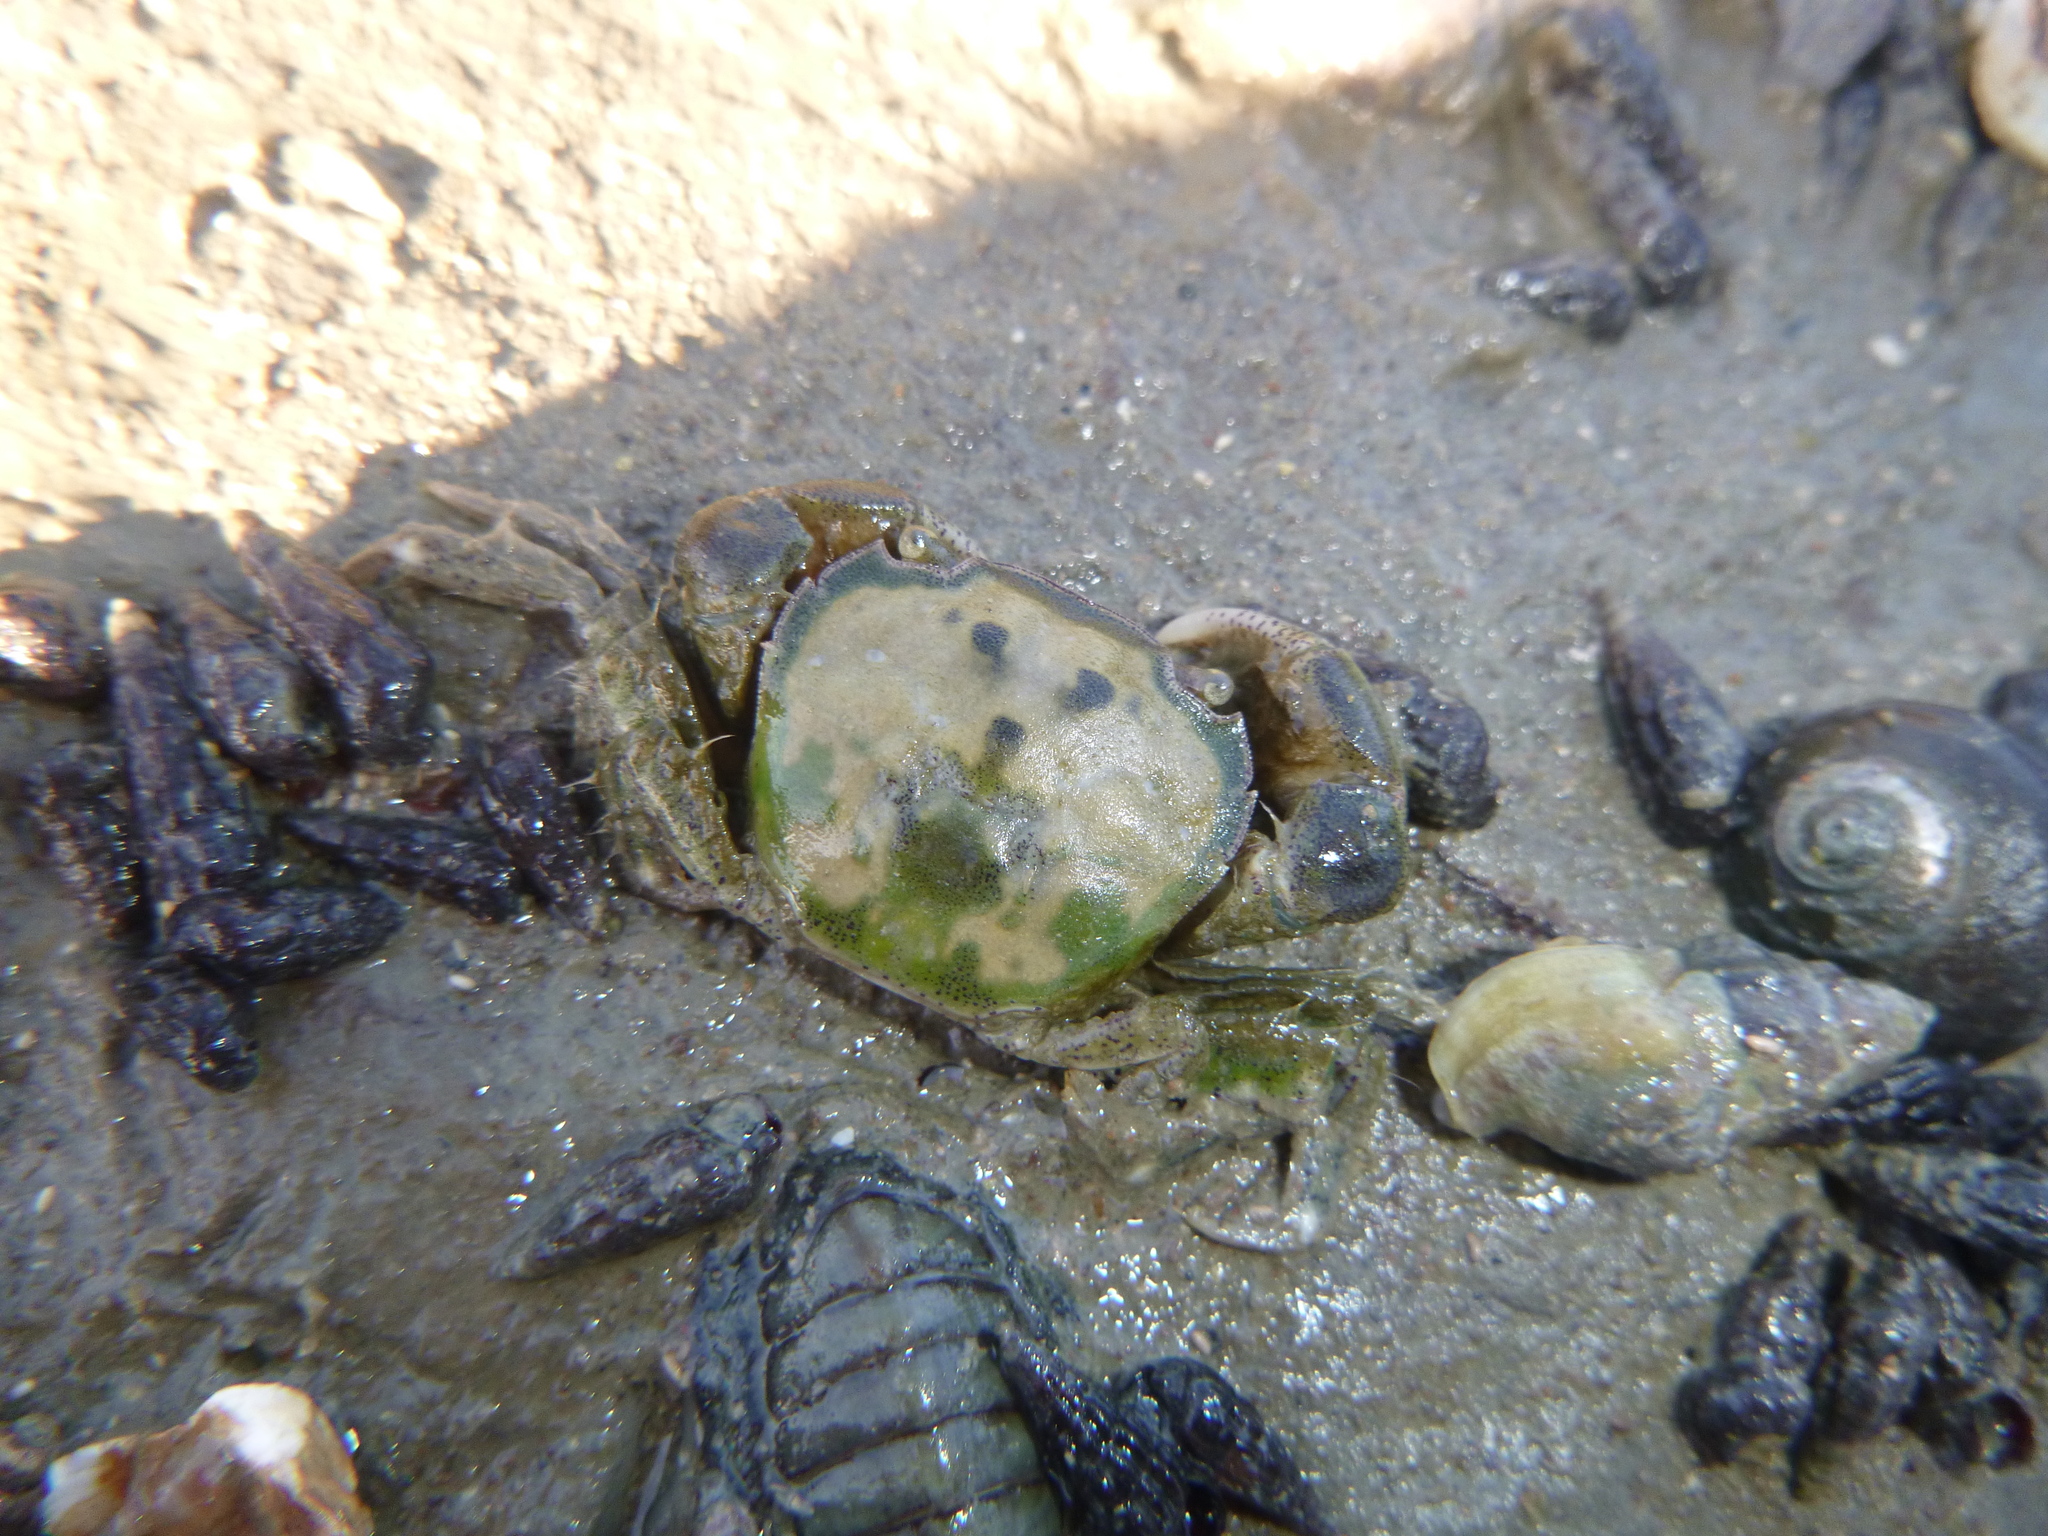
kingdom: Animalia
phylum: Arthropoda
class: Malacostraca
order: Decapoda
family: Varunidae
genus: Hemigrapsus
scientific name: Hemigrapsus crenulatus
